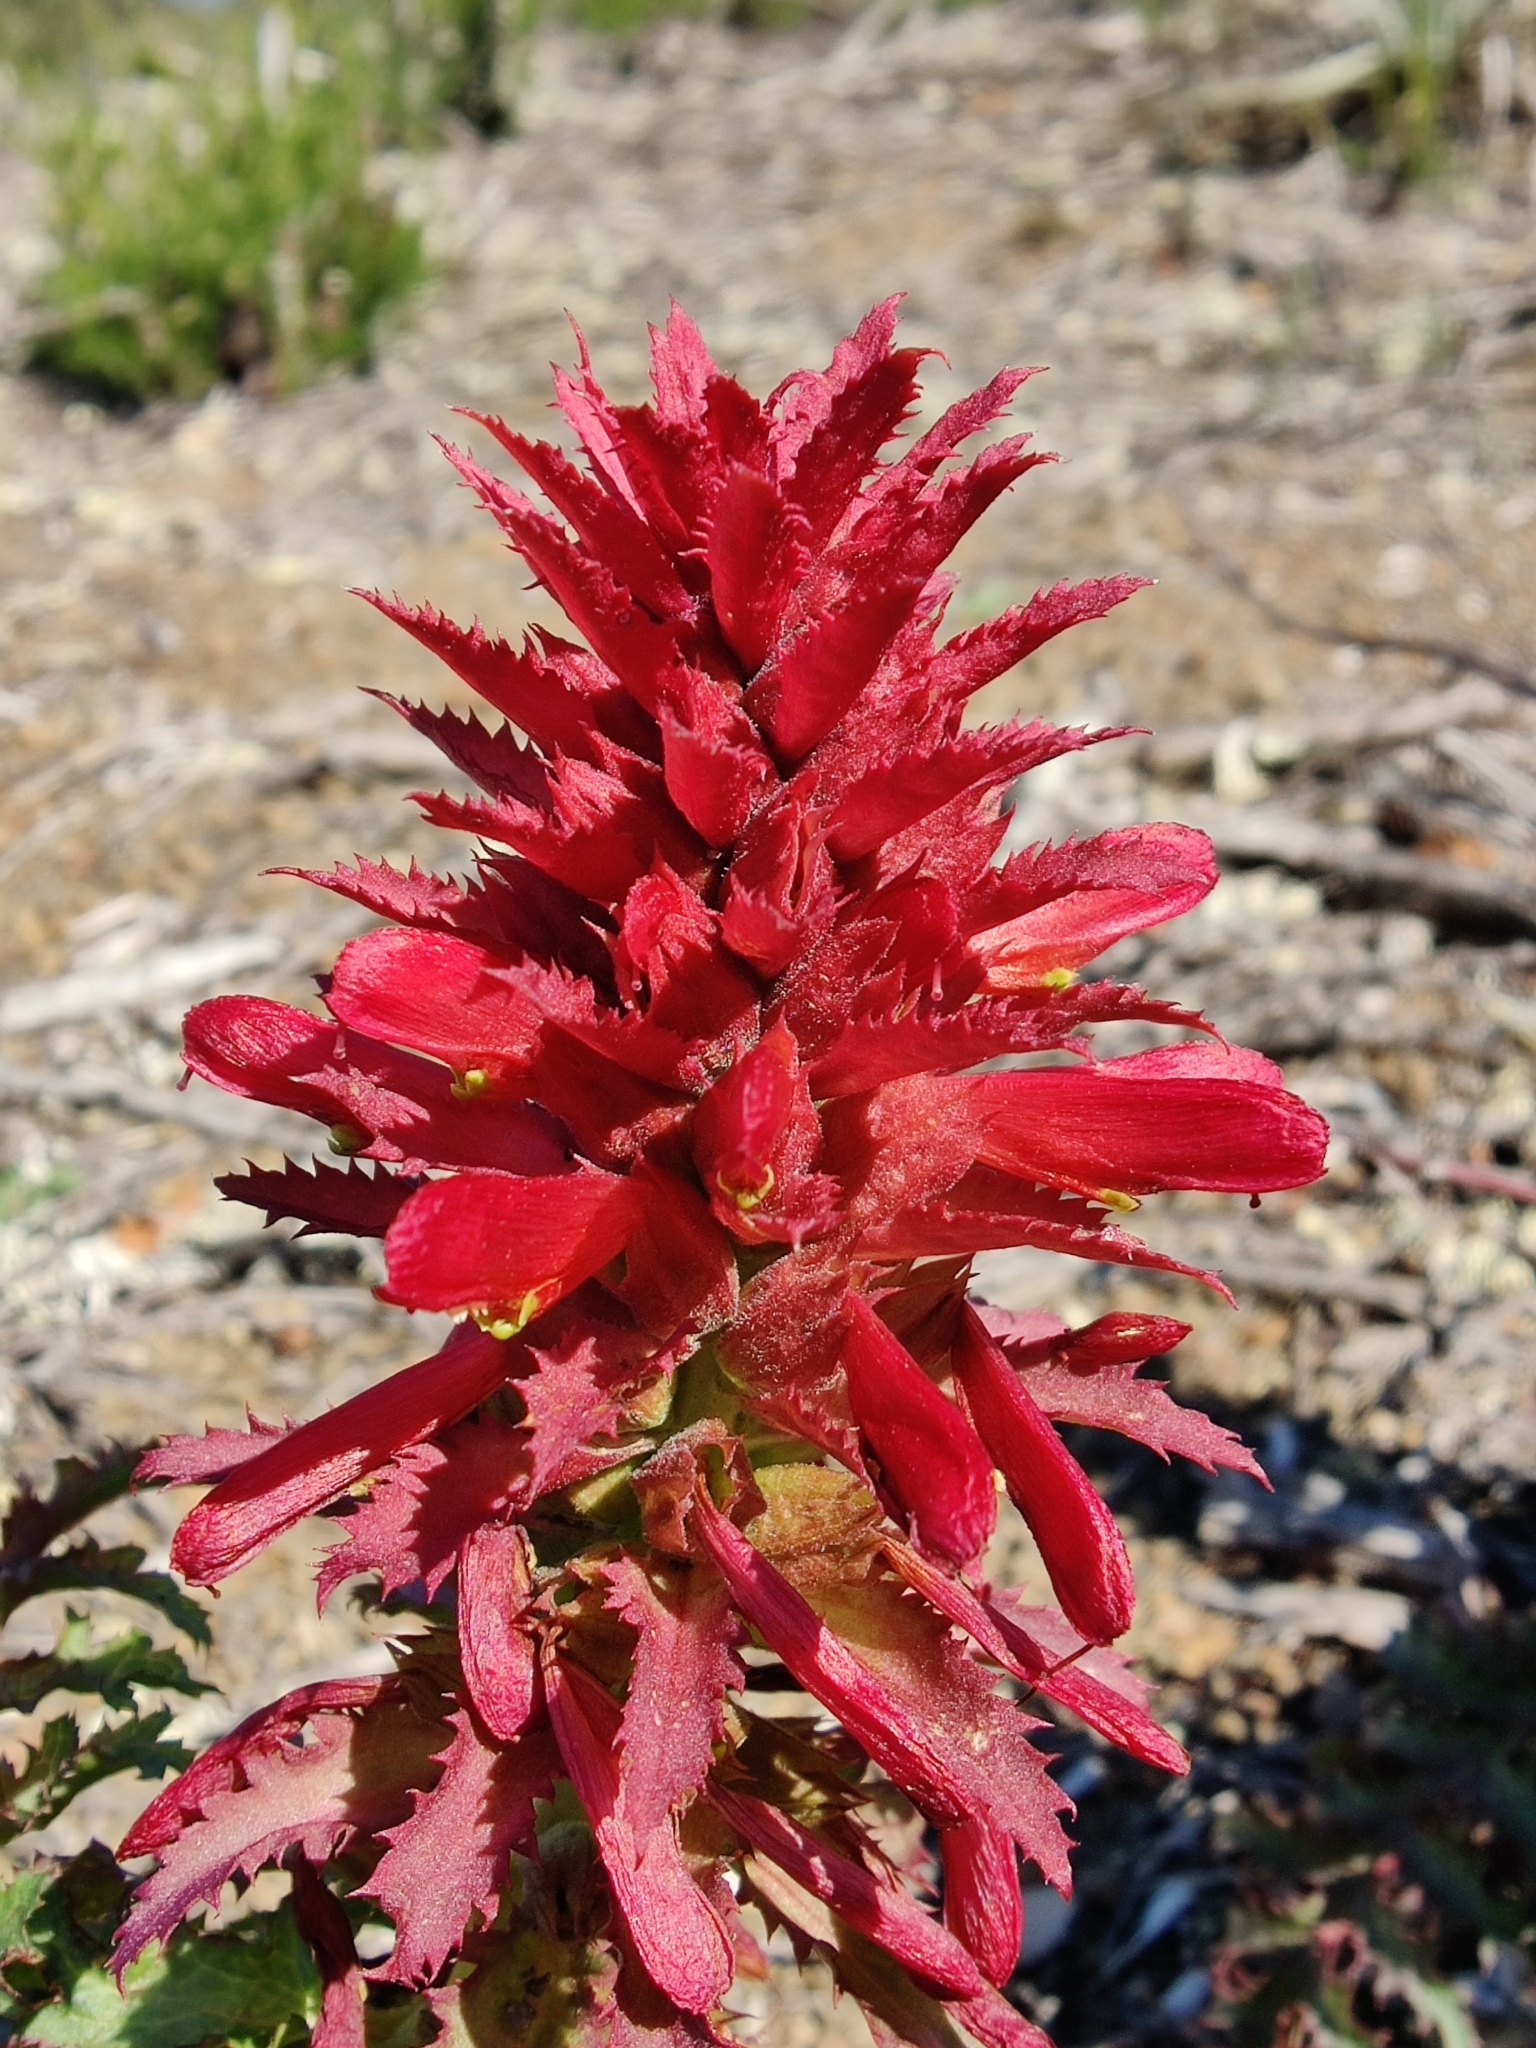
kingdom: Plantae
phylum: Tracheophyta
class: Magnoliopsida
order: Lamiales
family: Orobanchaceae
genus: Pedicularis
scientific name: Pedicularis densiflora
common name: Indian warrior
